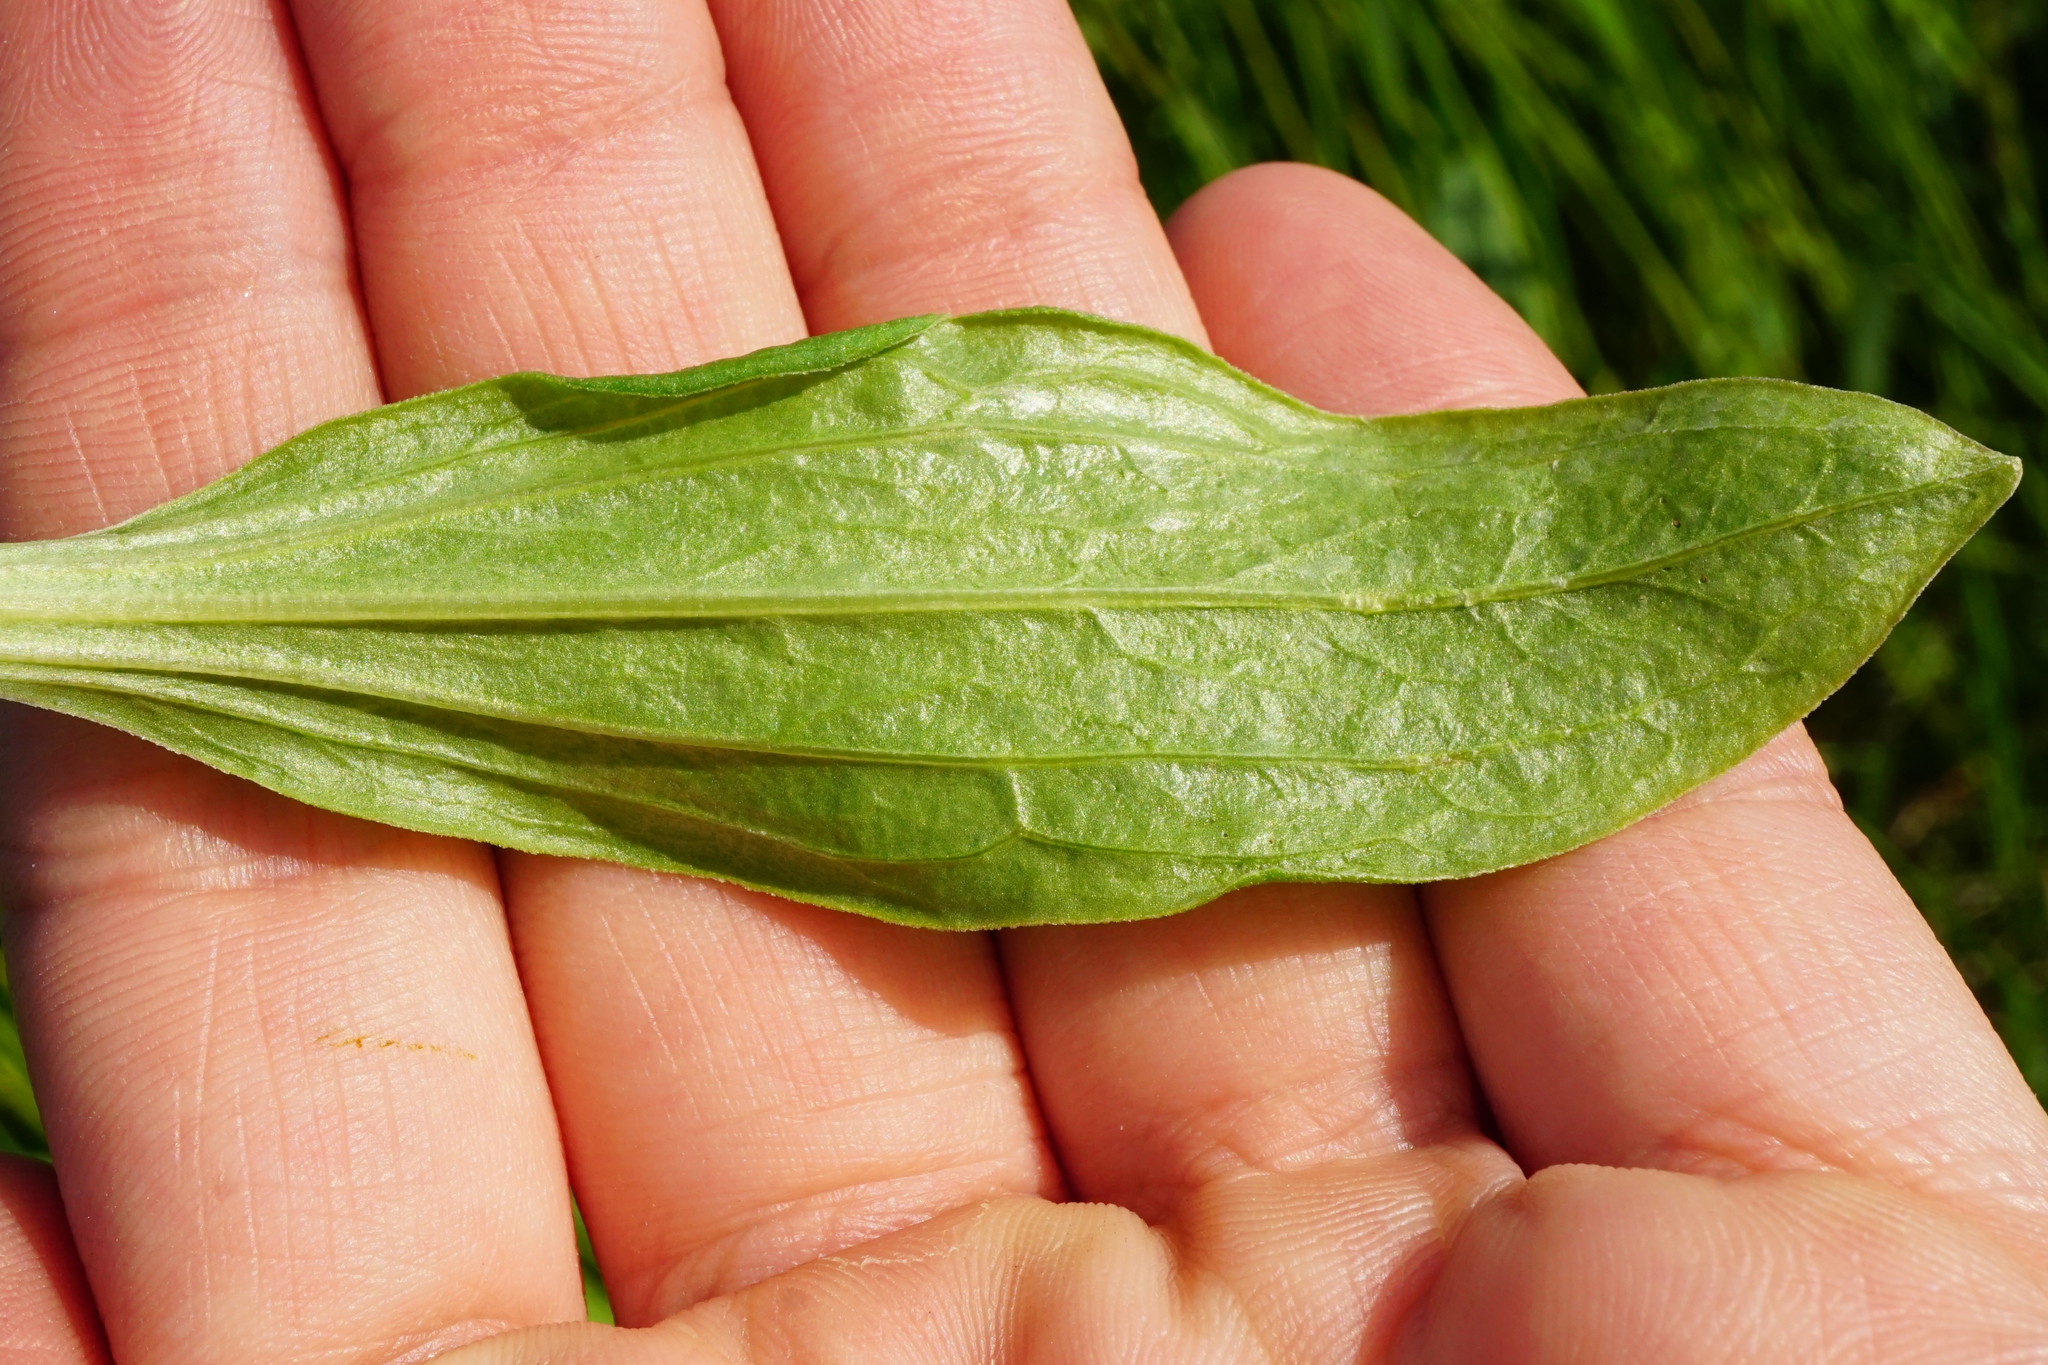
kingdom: Plantae
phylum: Tracheophyta
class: Magnoliopsida
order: Caryophyllales
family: Caryophyllaceae
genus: Saponaria
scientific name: Saponaria officinalis
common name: Soapwort
